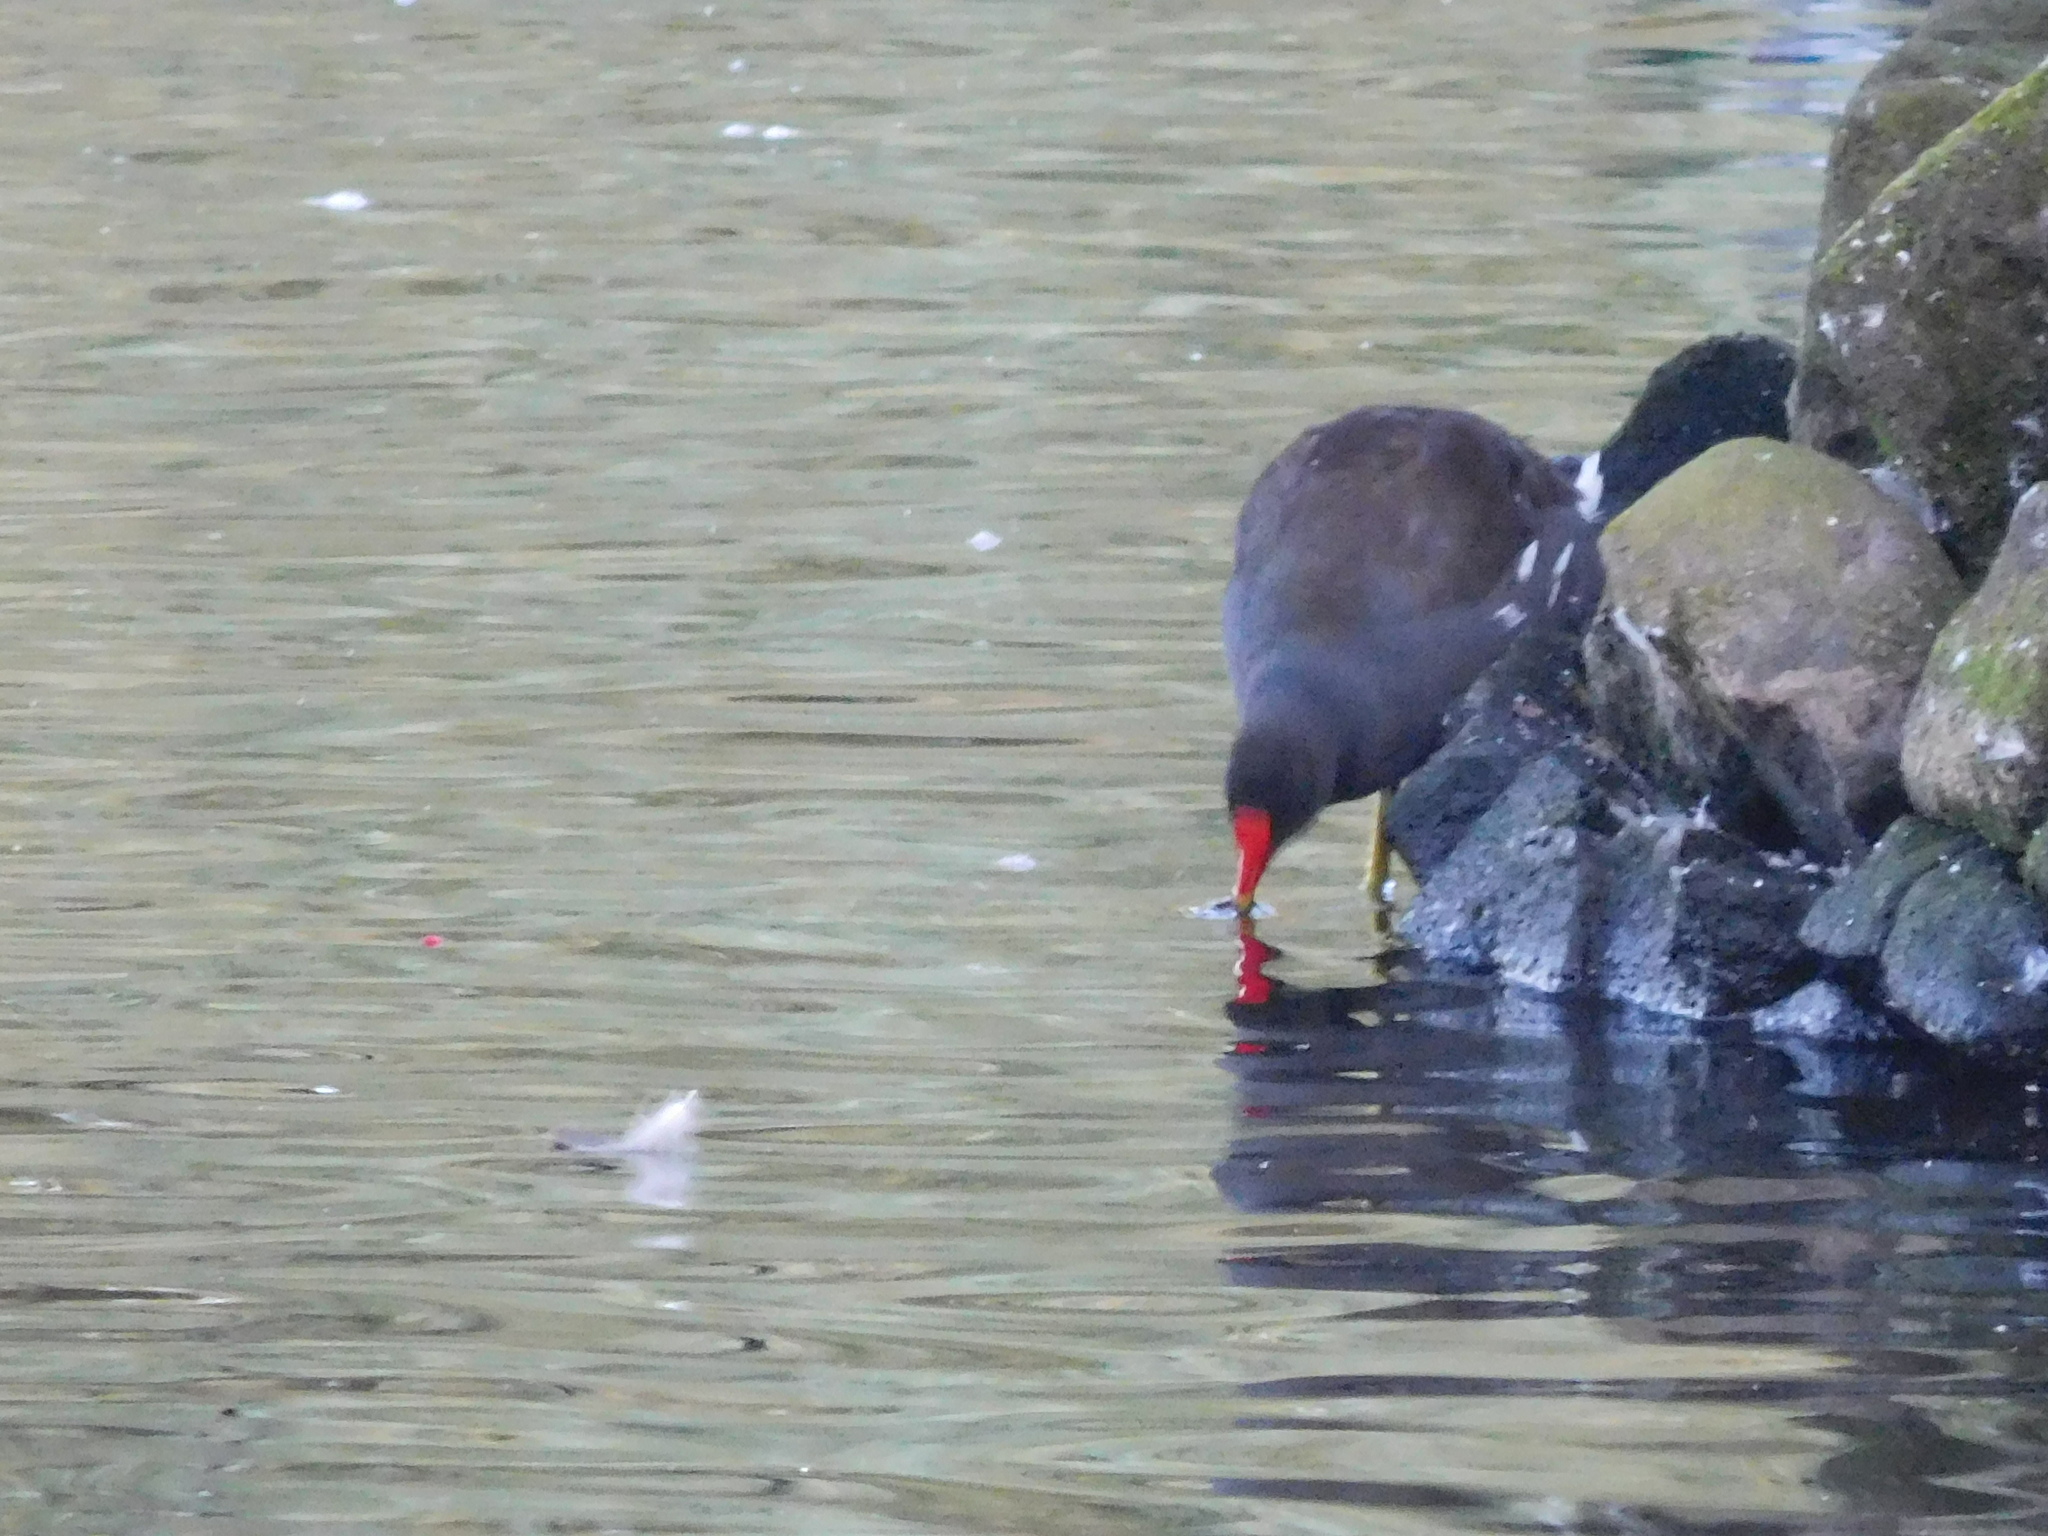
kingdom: Animalia
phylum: Chordata
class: Aves
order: Gruiformes
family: Rallidae
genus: Gallinula
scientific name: Gallinula chloropus
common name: Common moorhen
